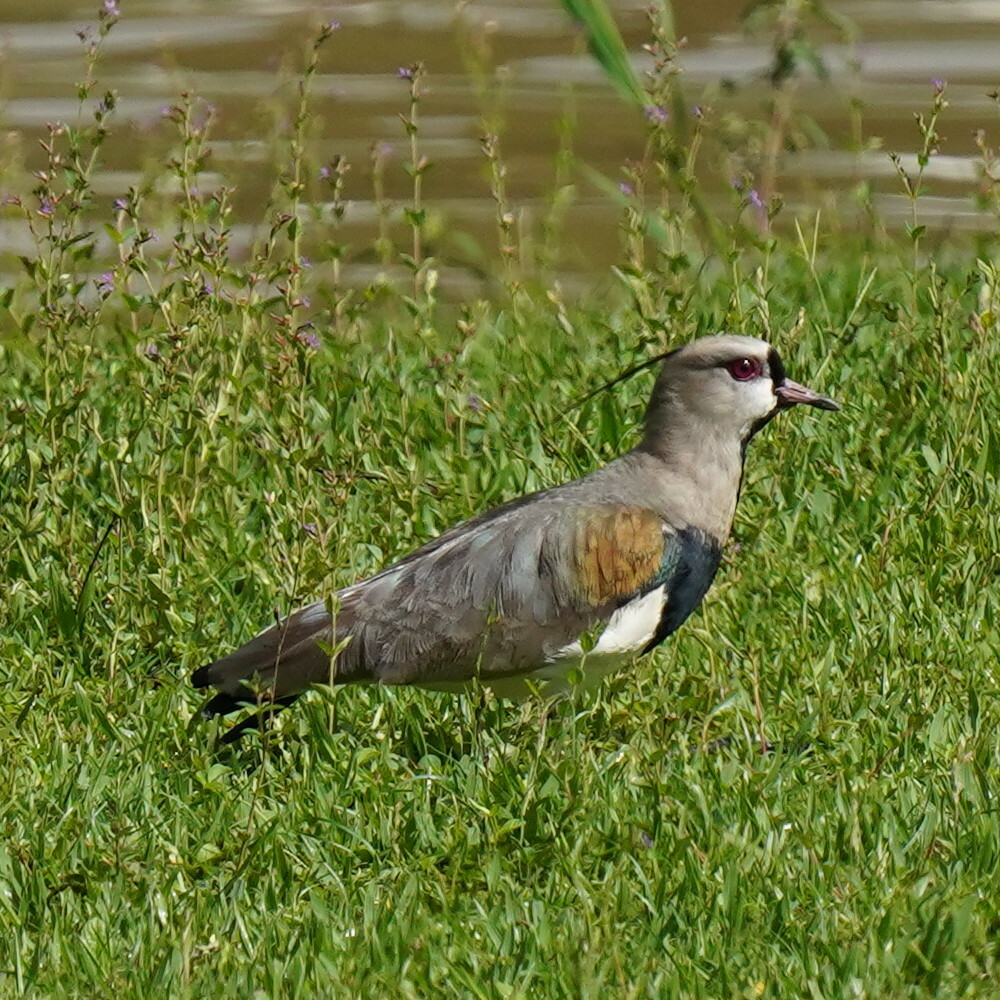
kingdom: Animalia
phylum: Chordata
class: Aves
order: Charadriiformes
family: Charadriidae
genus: Vanellus
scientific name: Vanellus chilensis
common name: Southern lapwing
